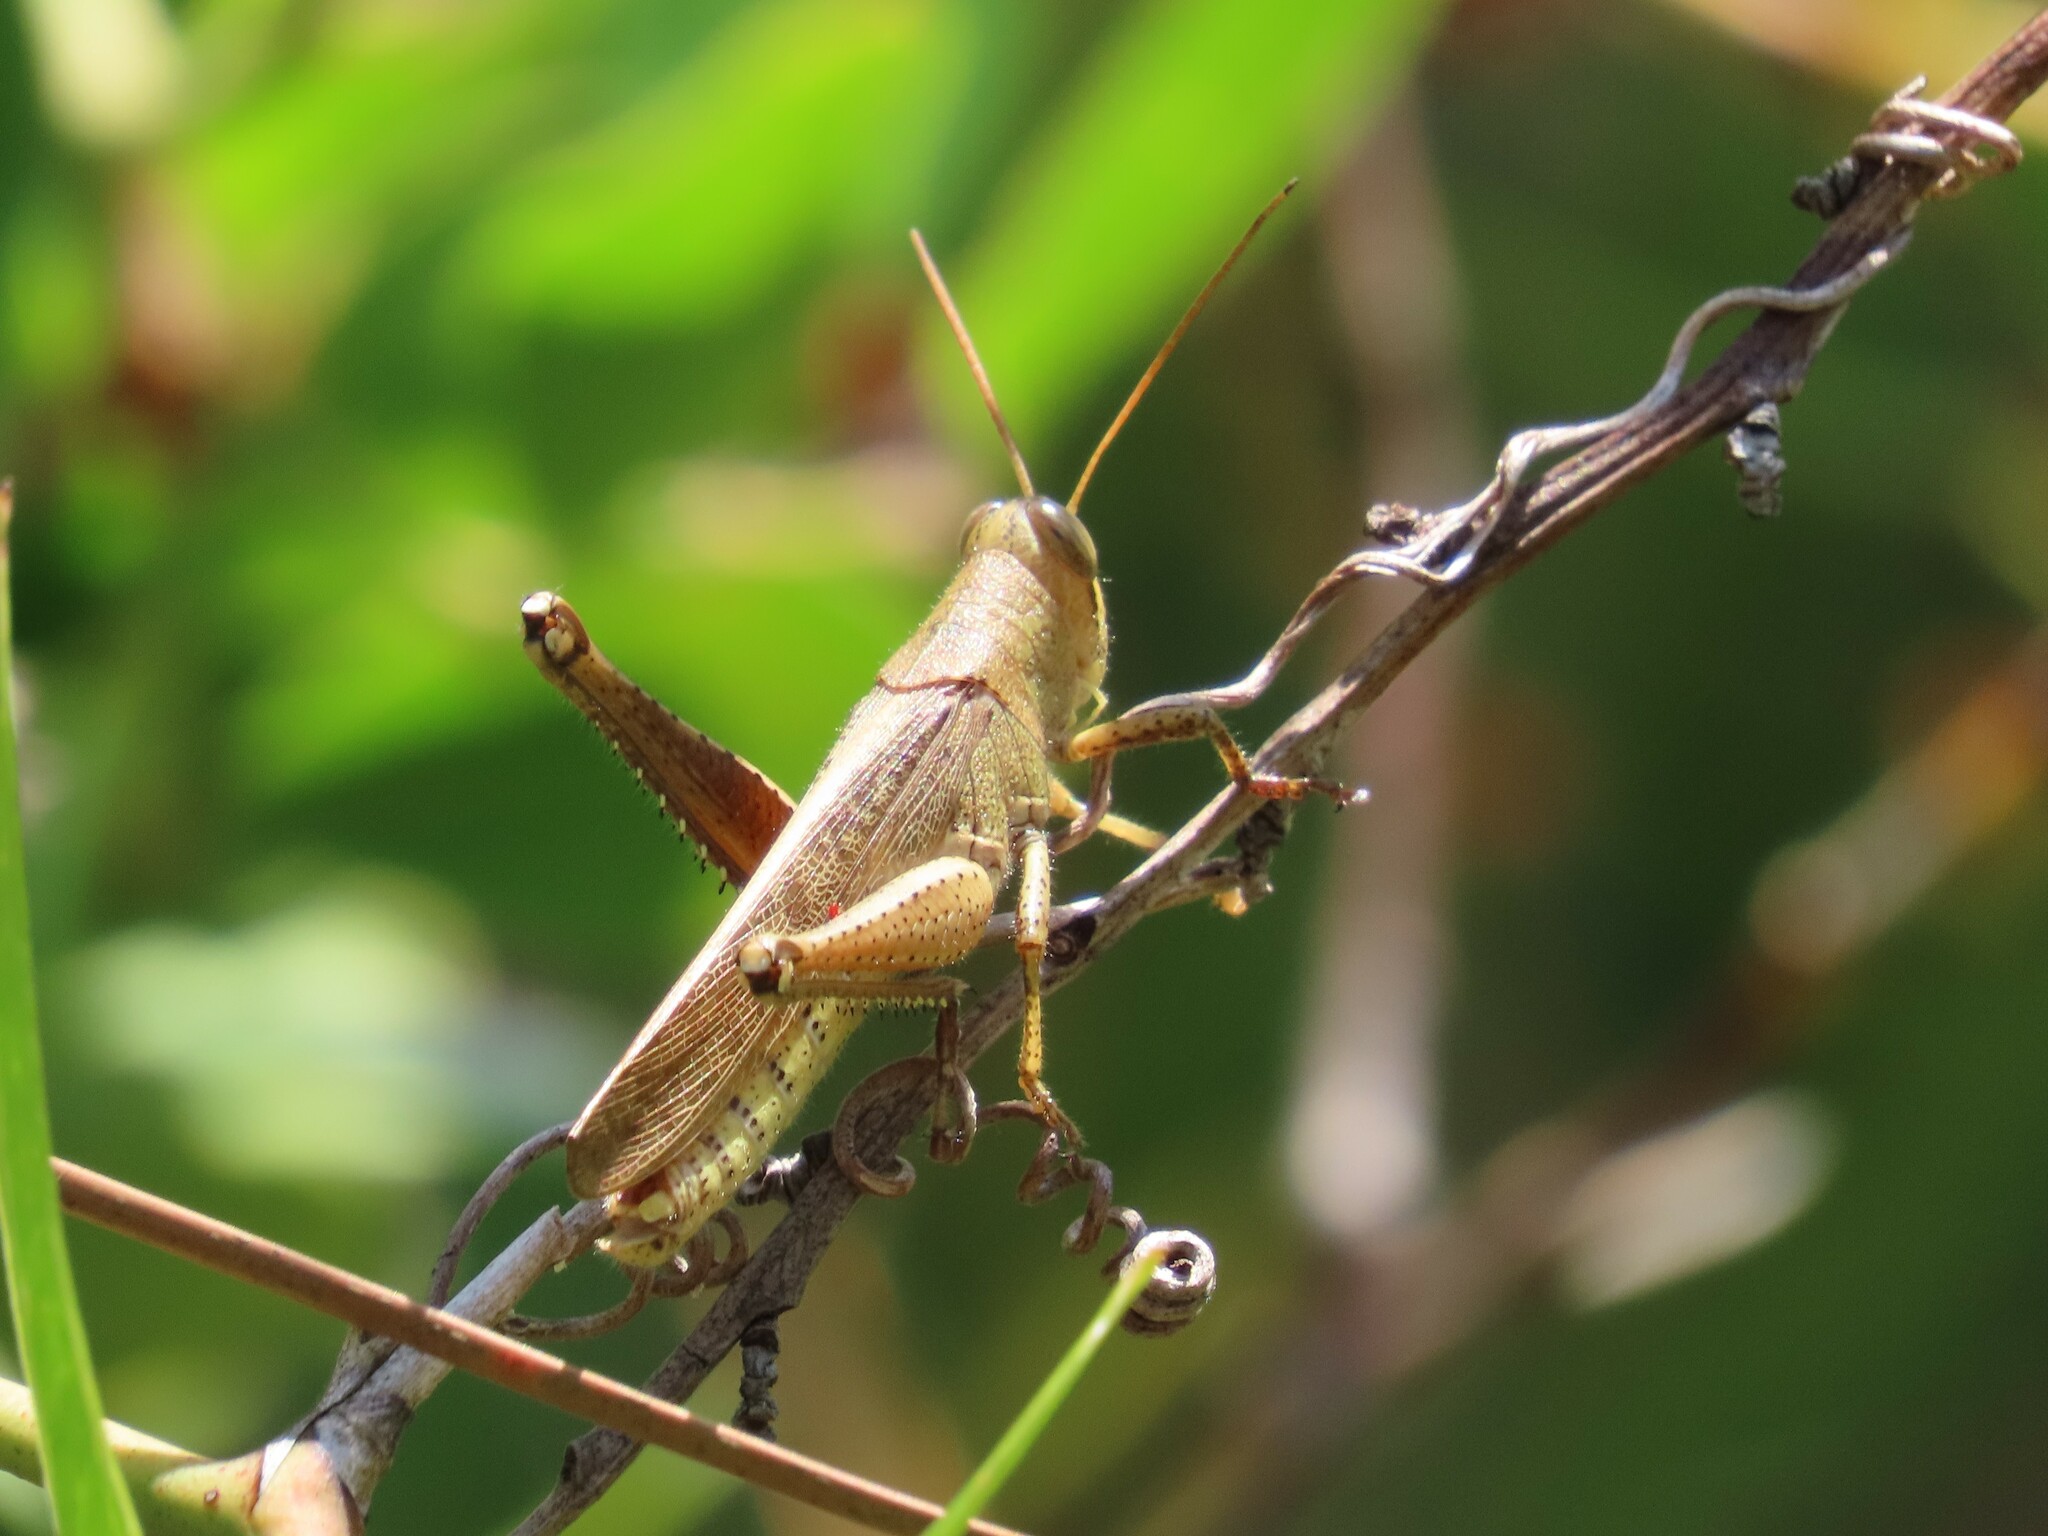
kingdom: Animalia
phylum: Arthropoda
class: Insecta
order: Orthoptera
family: Acrididae
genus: Schistocerca
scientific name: Schistocerca rubiginosa
